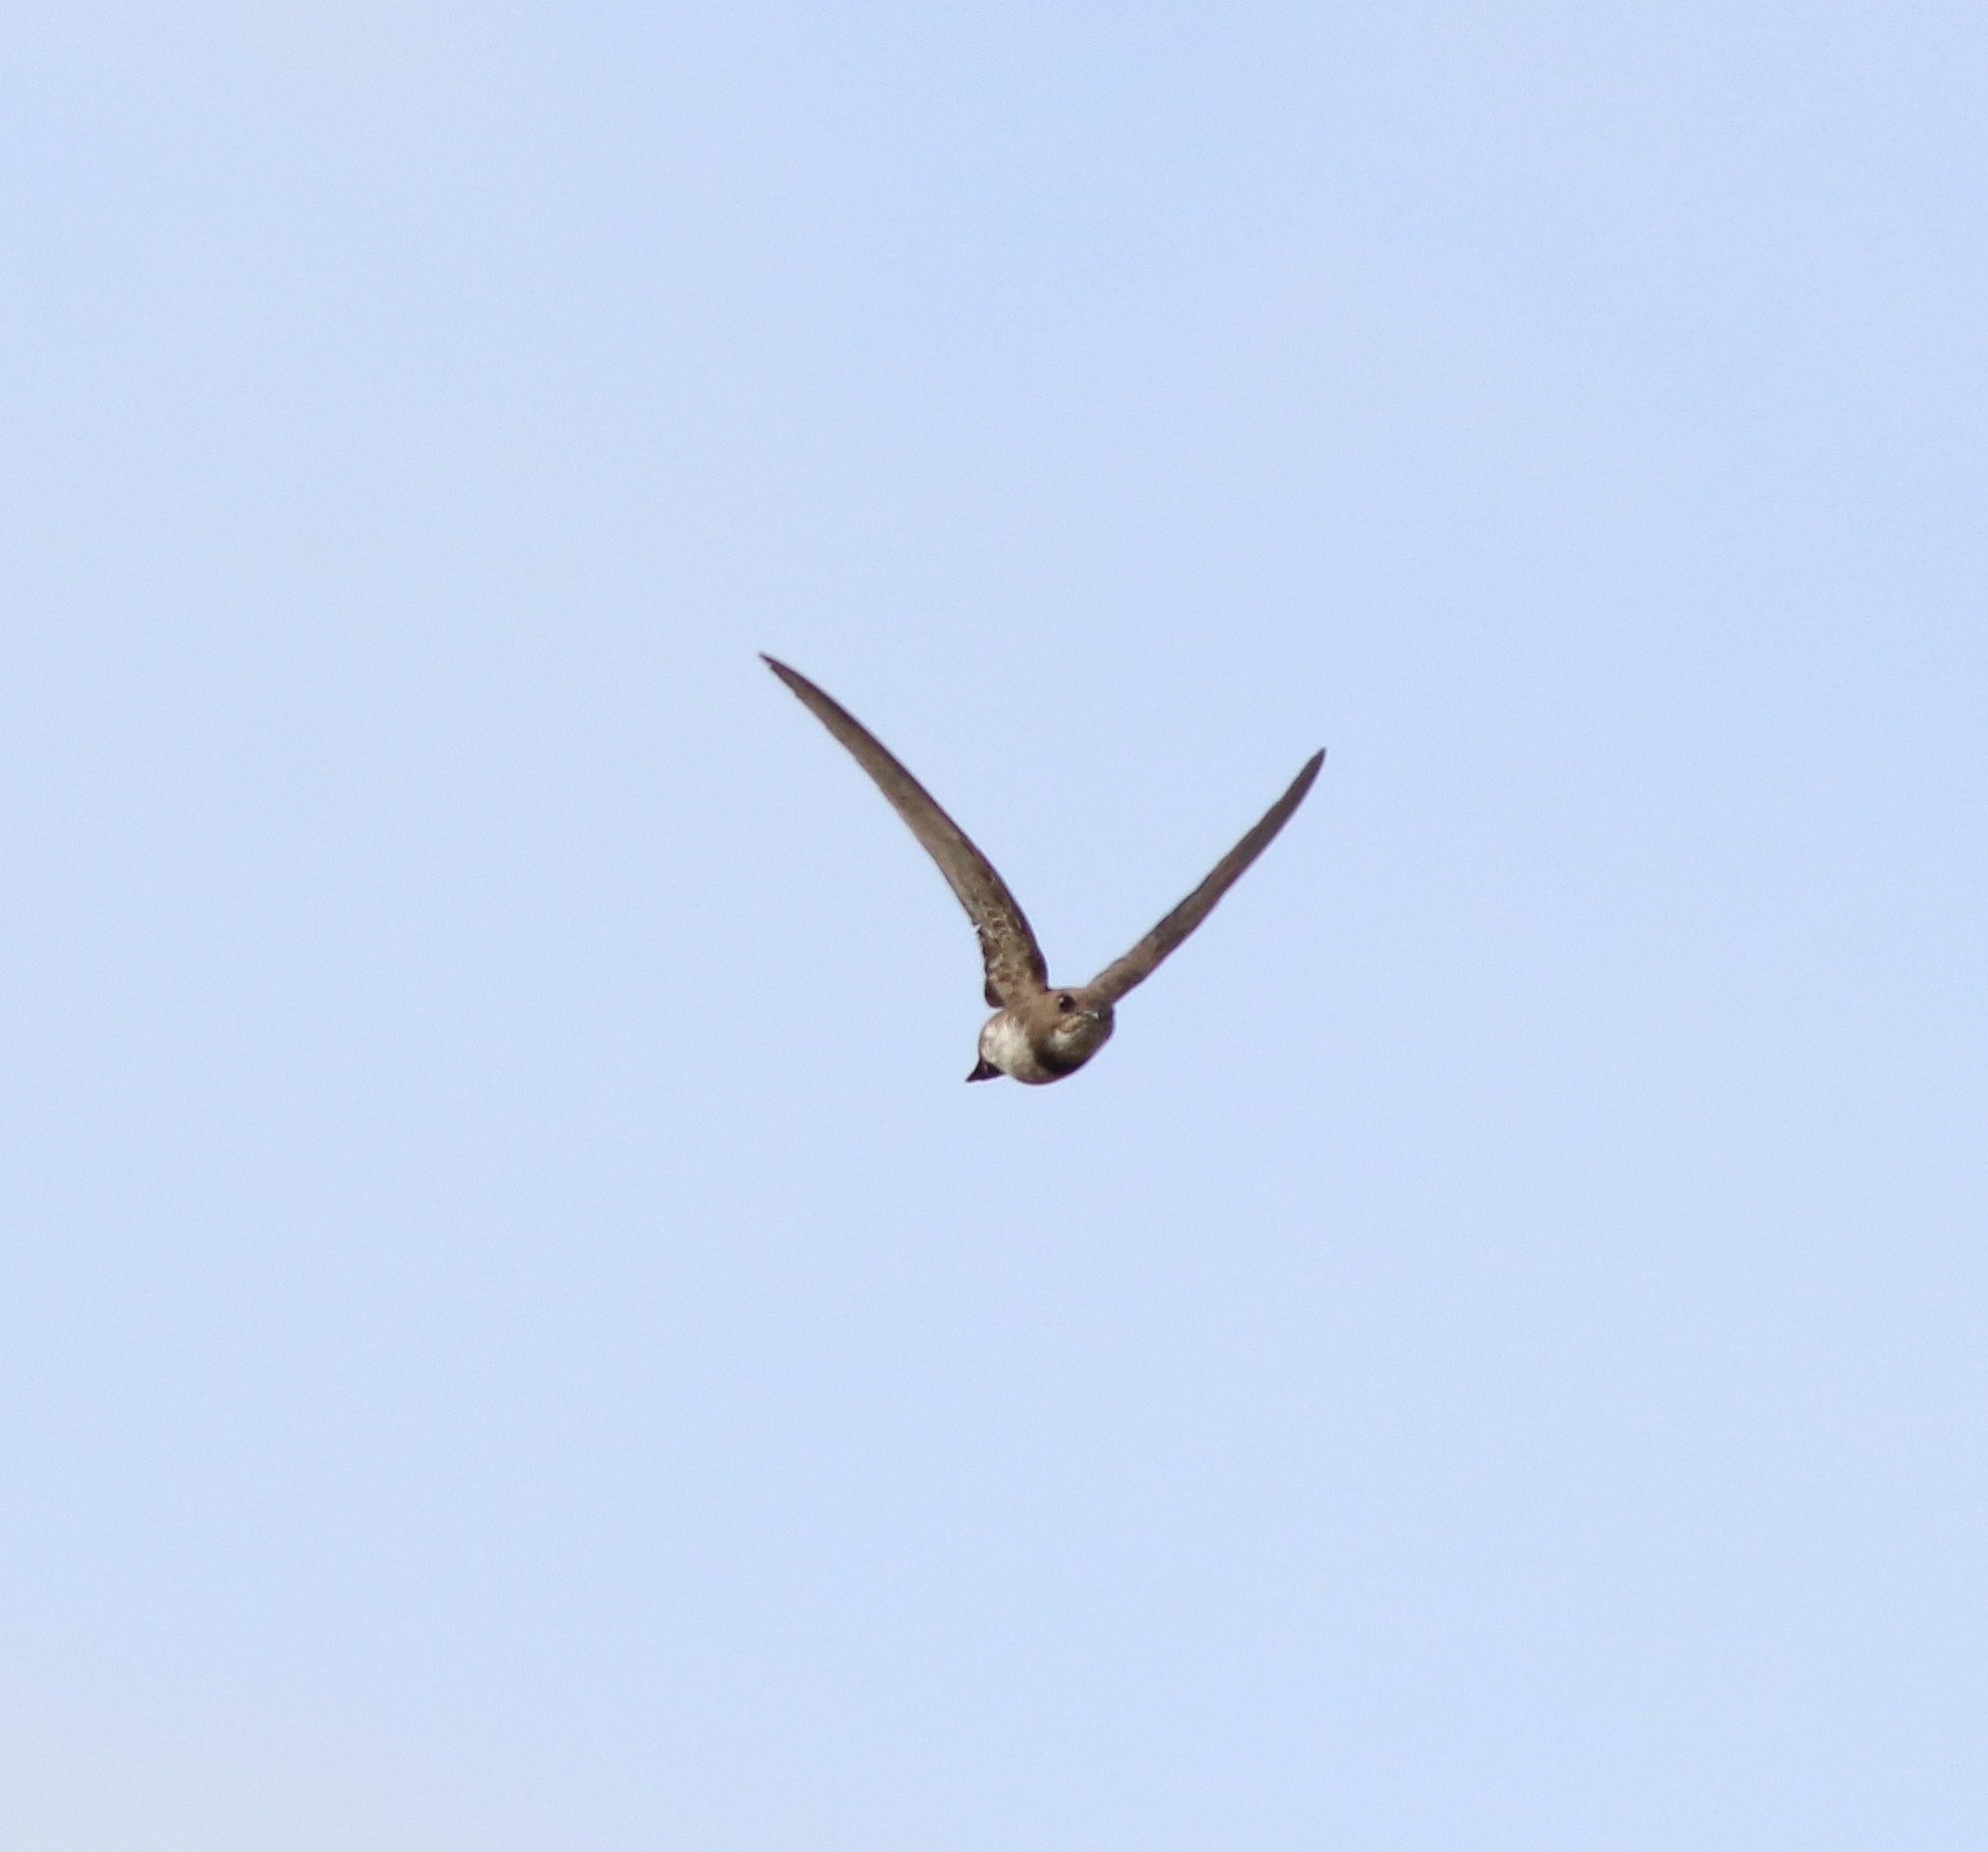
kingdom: Animalia
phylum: Chordata
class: Aves
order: Apodiformes
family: Apodidae
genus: Tachymarptis
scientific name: Tachymarptis melba
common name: Alpine swift
